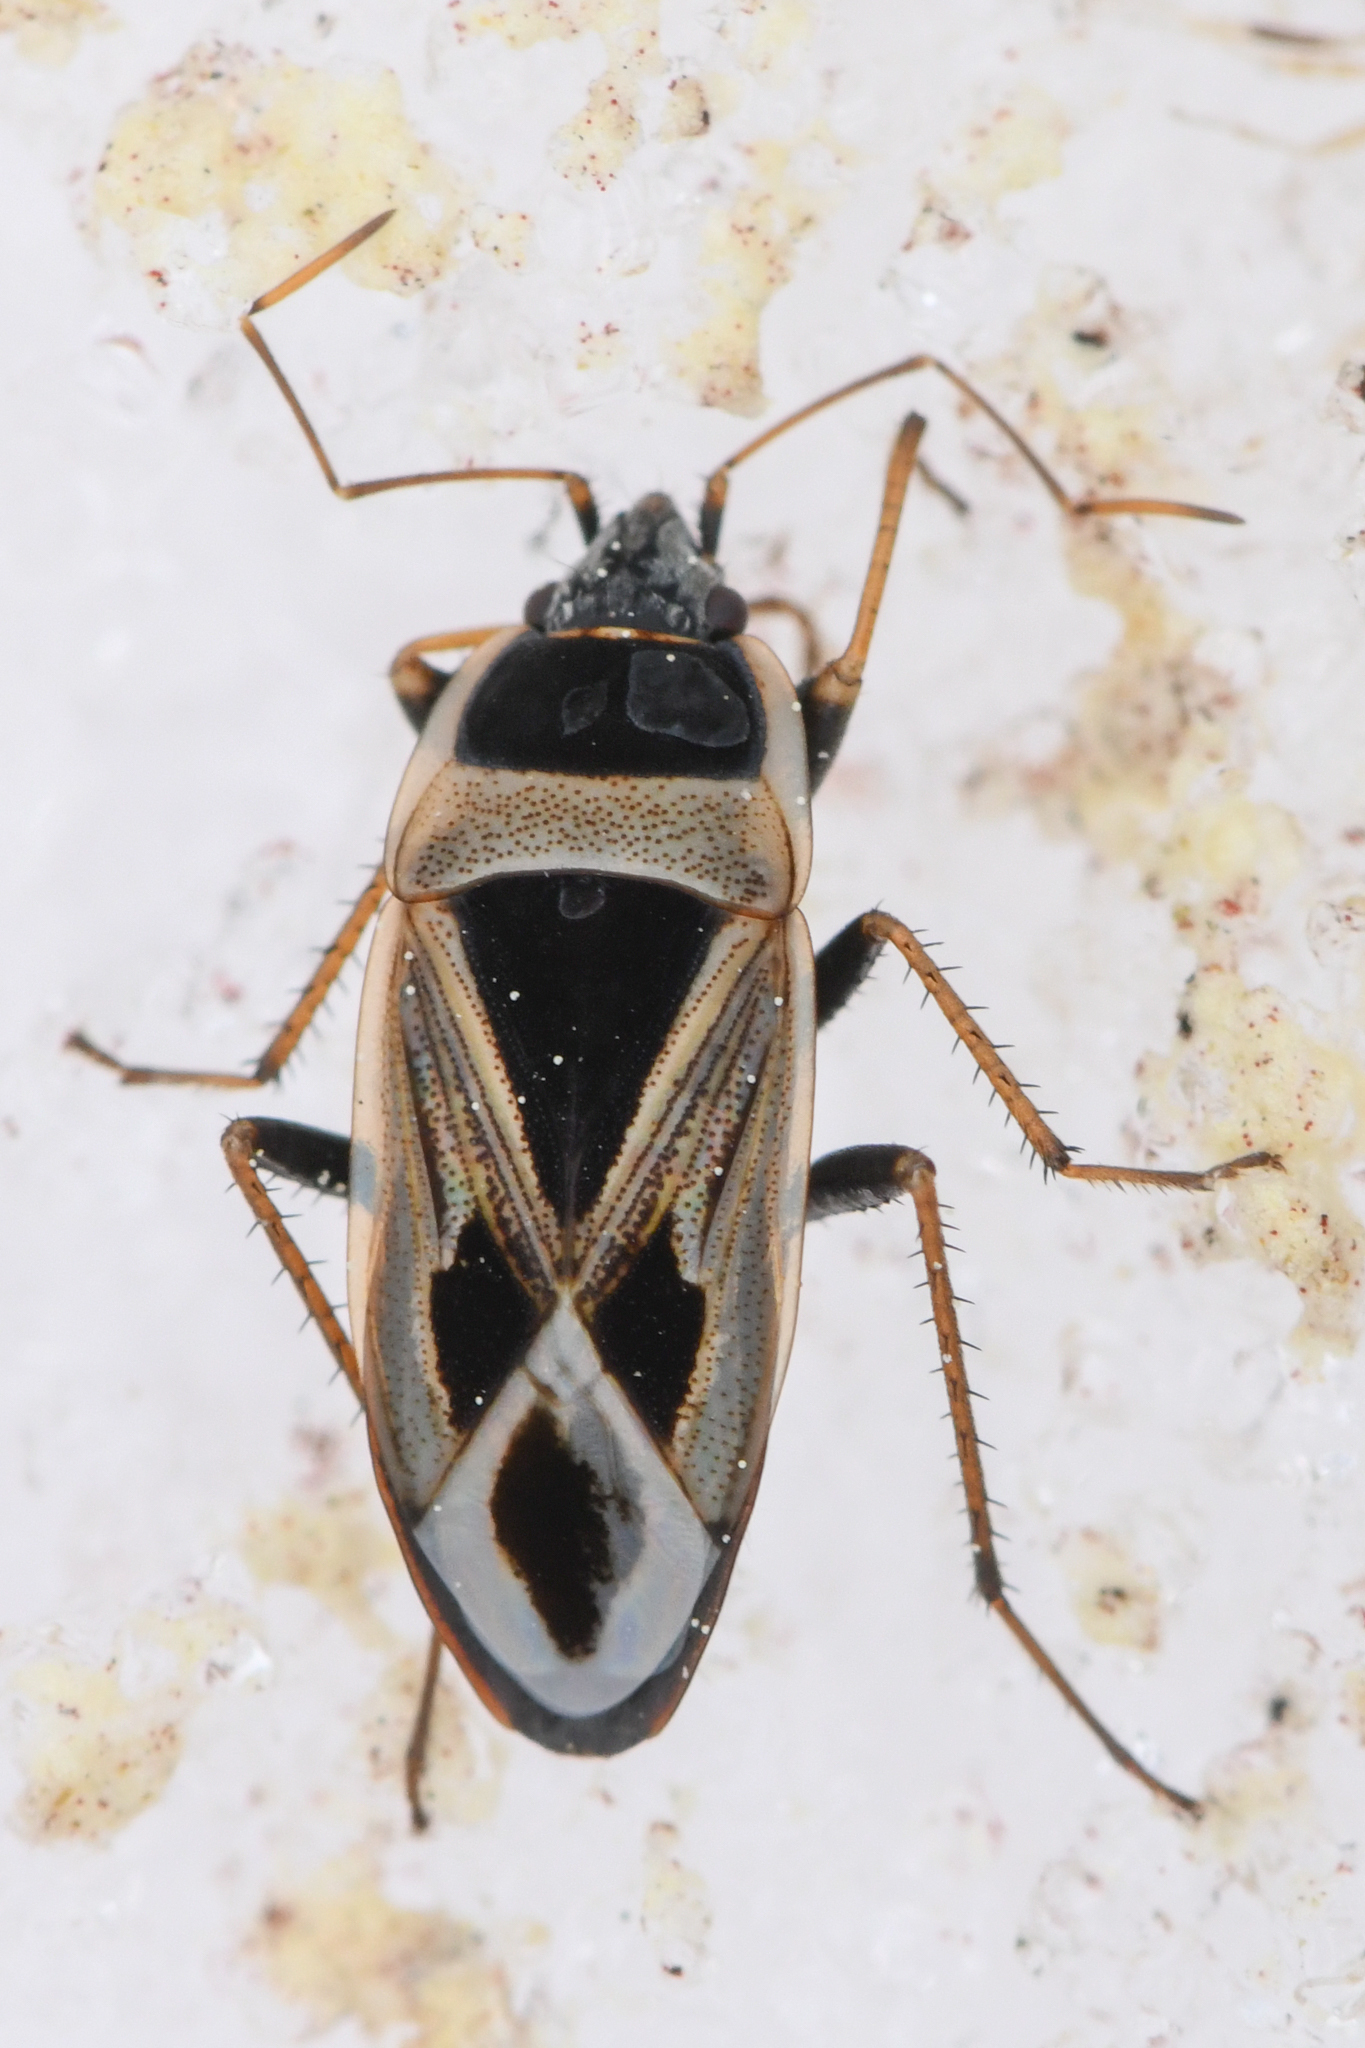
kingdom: Animalia
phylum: Arthropoda
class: Insecta
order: Hemiptera
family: Rhyparochromidae
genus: Xanthochilus
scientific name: Xanthochilus saturnius
